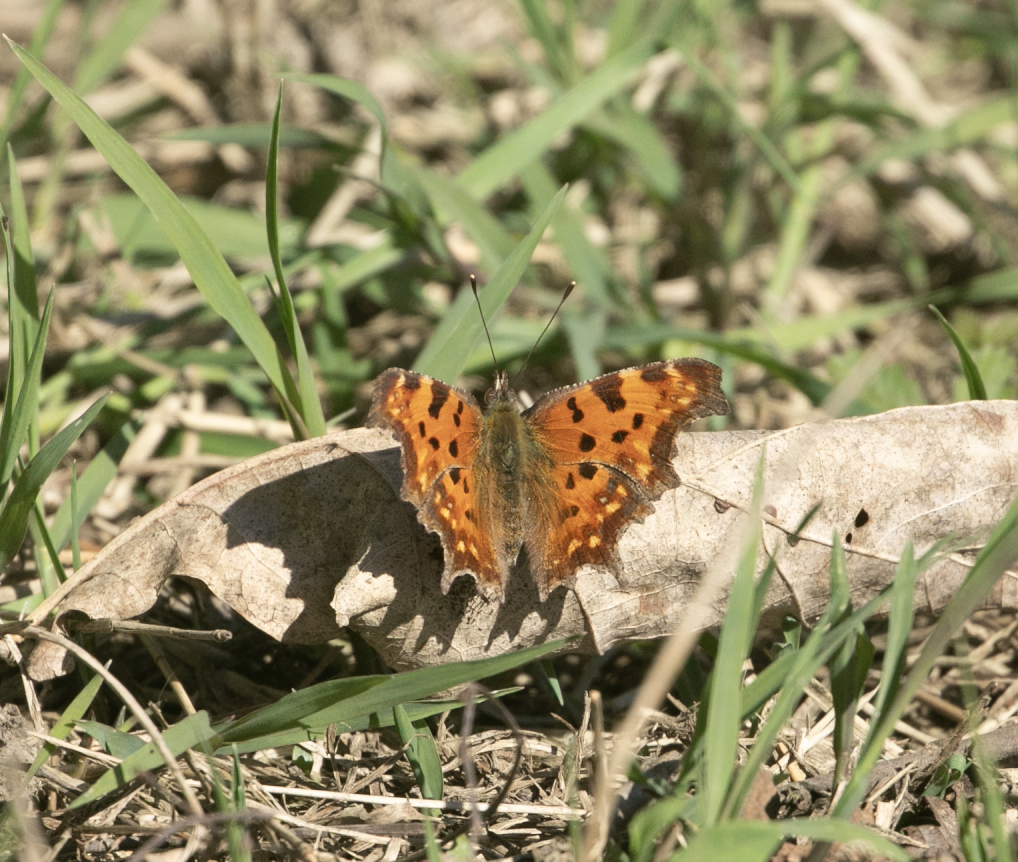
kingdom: Animalia
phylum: Arthropoda
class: Insecta
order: Lepidoptera
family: Nymphalidae
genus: Polygonia
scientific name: Polygonia c-album
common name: Comma
